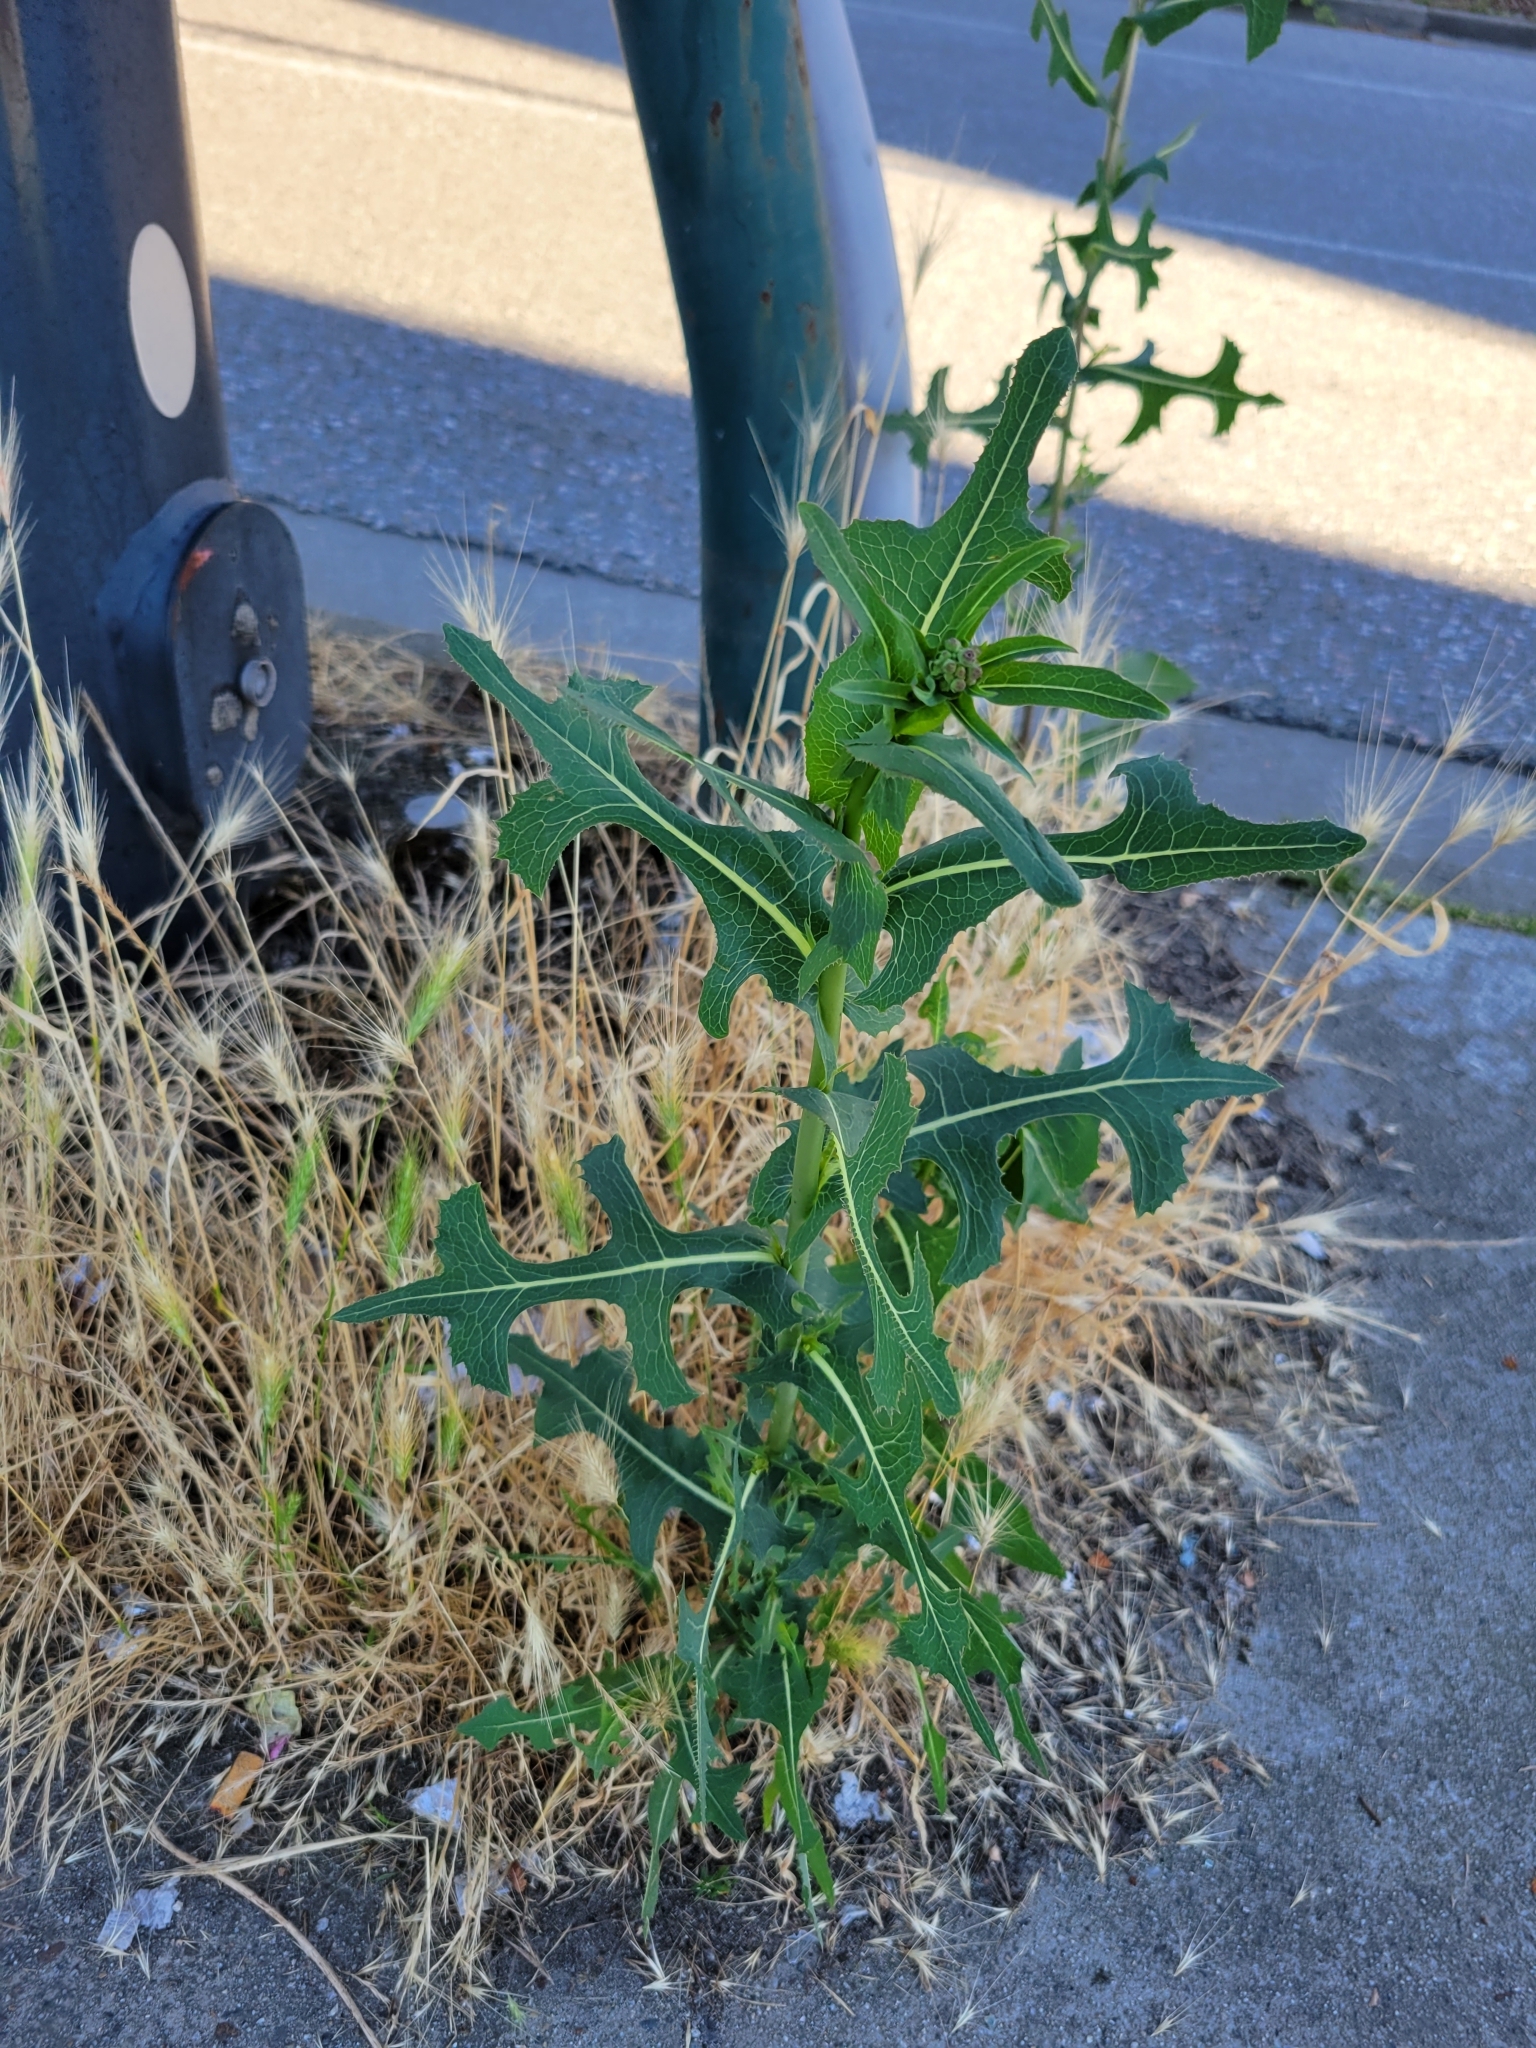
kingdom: Plantae
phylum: Tracheophyta
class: Magnoliopsida
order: Asterales
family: Asteraceae
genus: Lactuca
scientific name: Lactuca serriola
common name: Prickly lettuce
